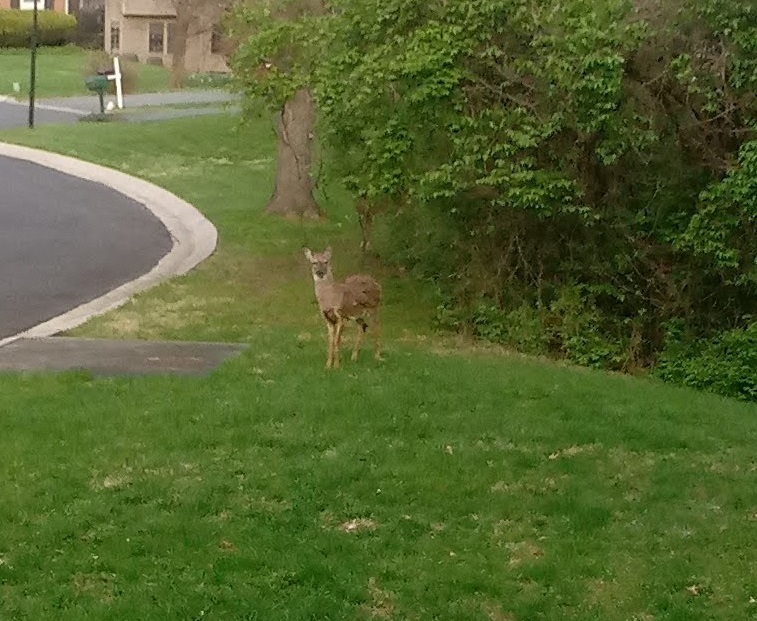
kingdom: Animalia
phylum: Chordata
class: Mammalia
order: Artiodactyla
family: Cervidae
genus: Odocoileus
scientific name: Odocoileus virginianus
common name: White-tailed deer
